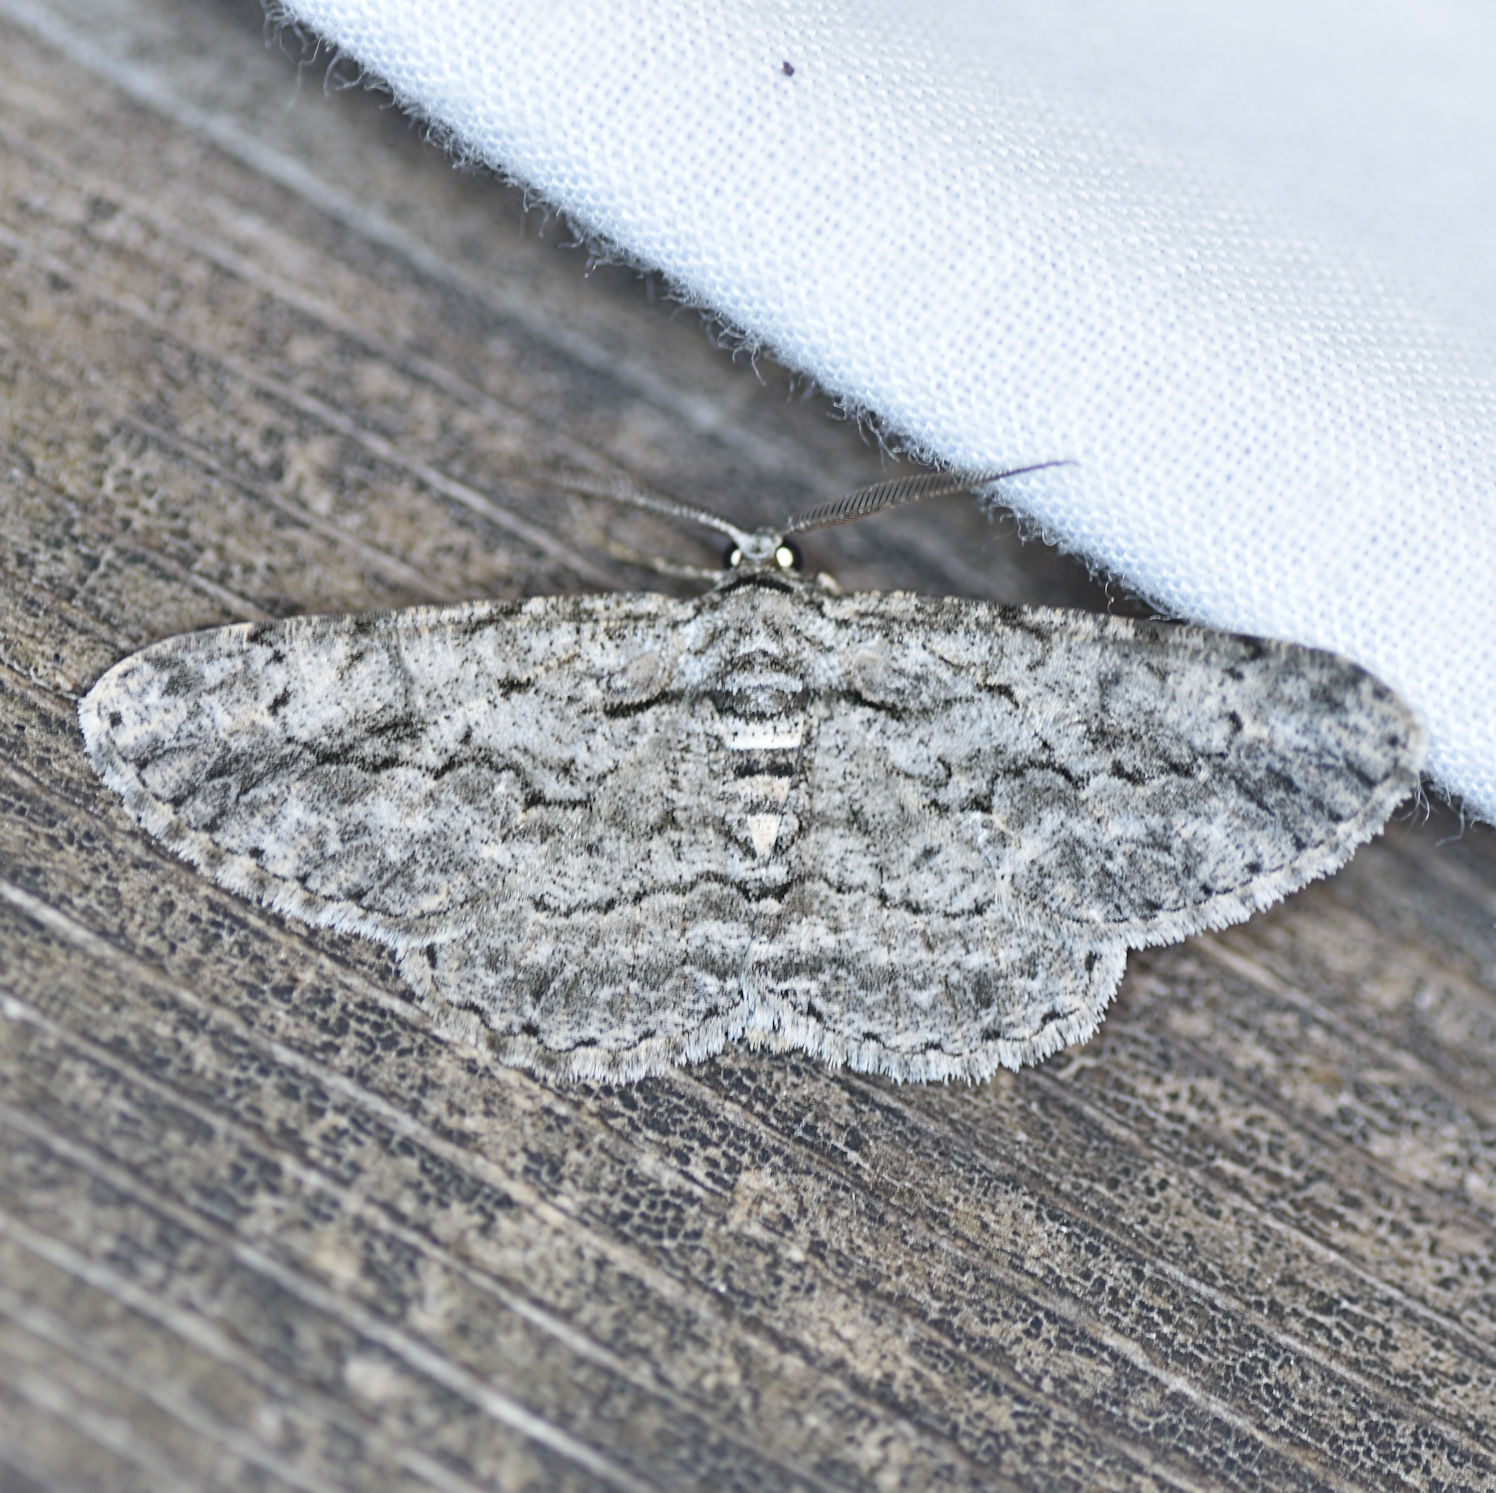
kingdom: Animalia
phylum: Arthropoda
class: Insecta
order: Lepidoptera
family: Geometridae
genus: Anavitrinella
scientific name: Anavitrinella pampinaria
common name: Common gray
